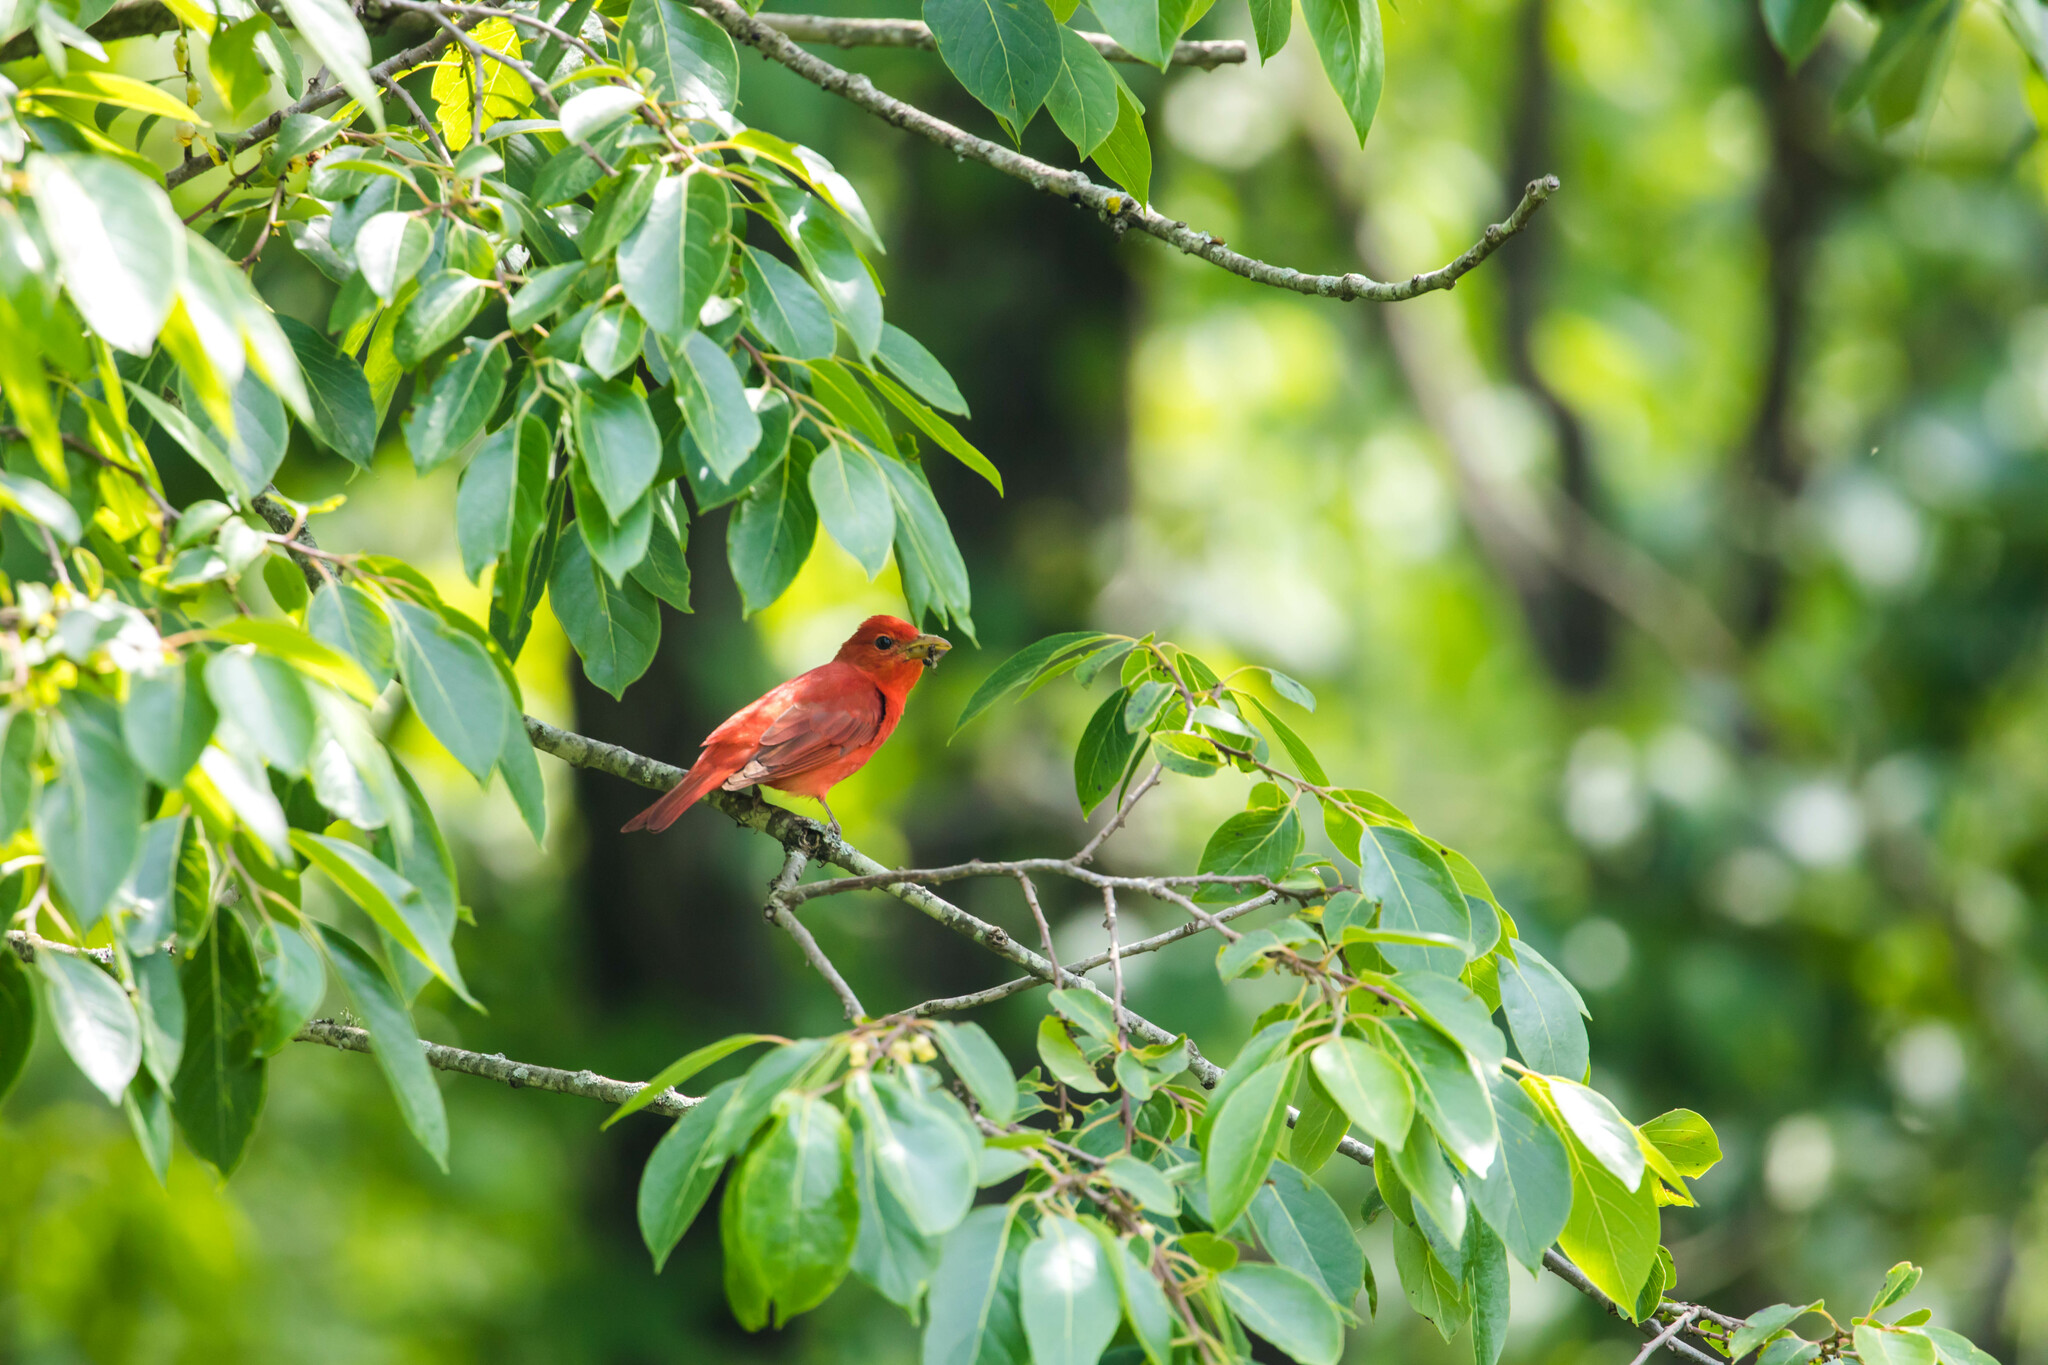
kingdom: Animalia
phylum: Chordata
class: Aves
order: Passeriformes
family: Cardinalidae
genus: Piranga
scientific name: Piranga rubra
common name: Summer tanager
